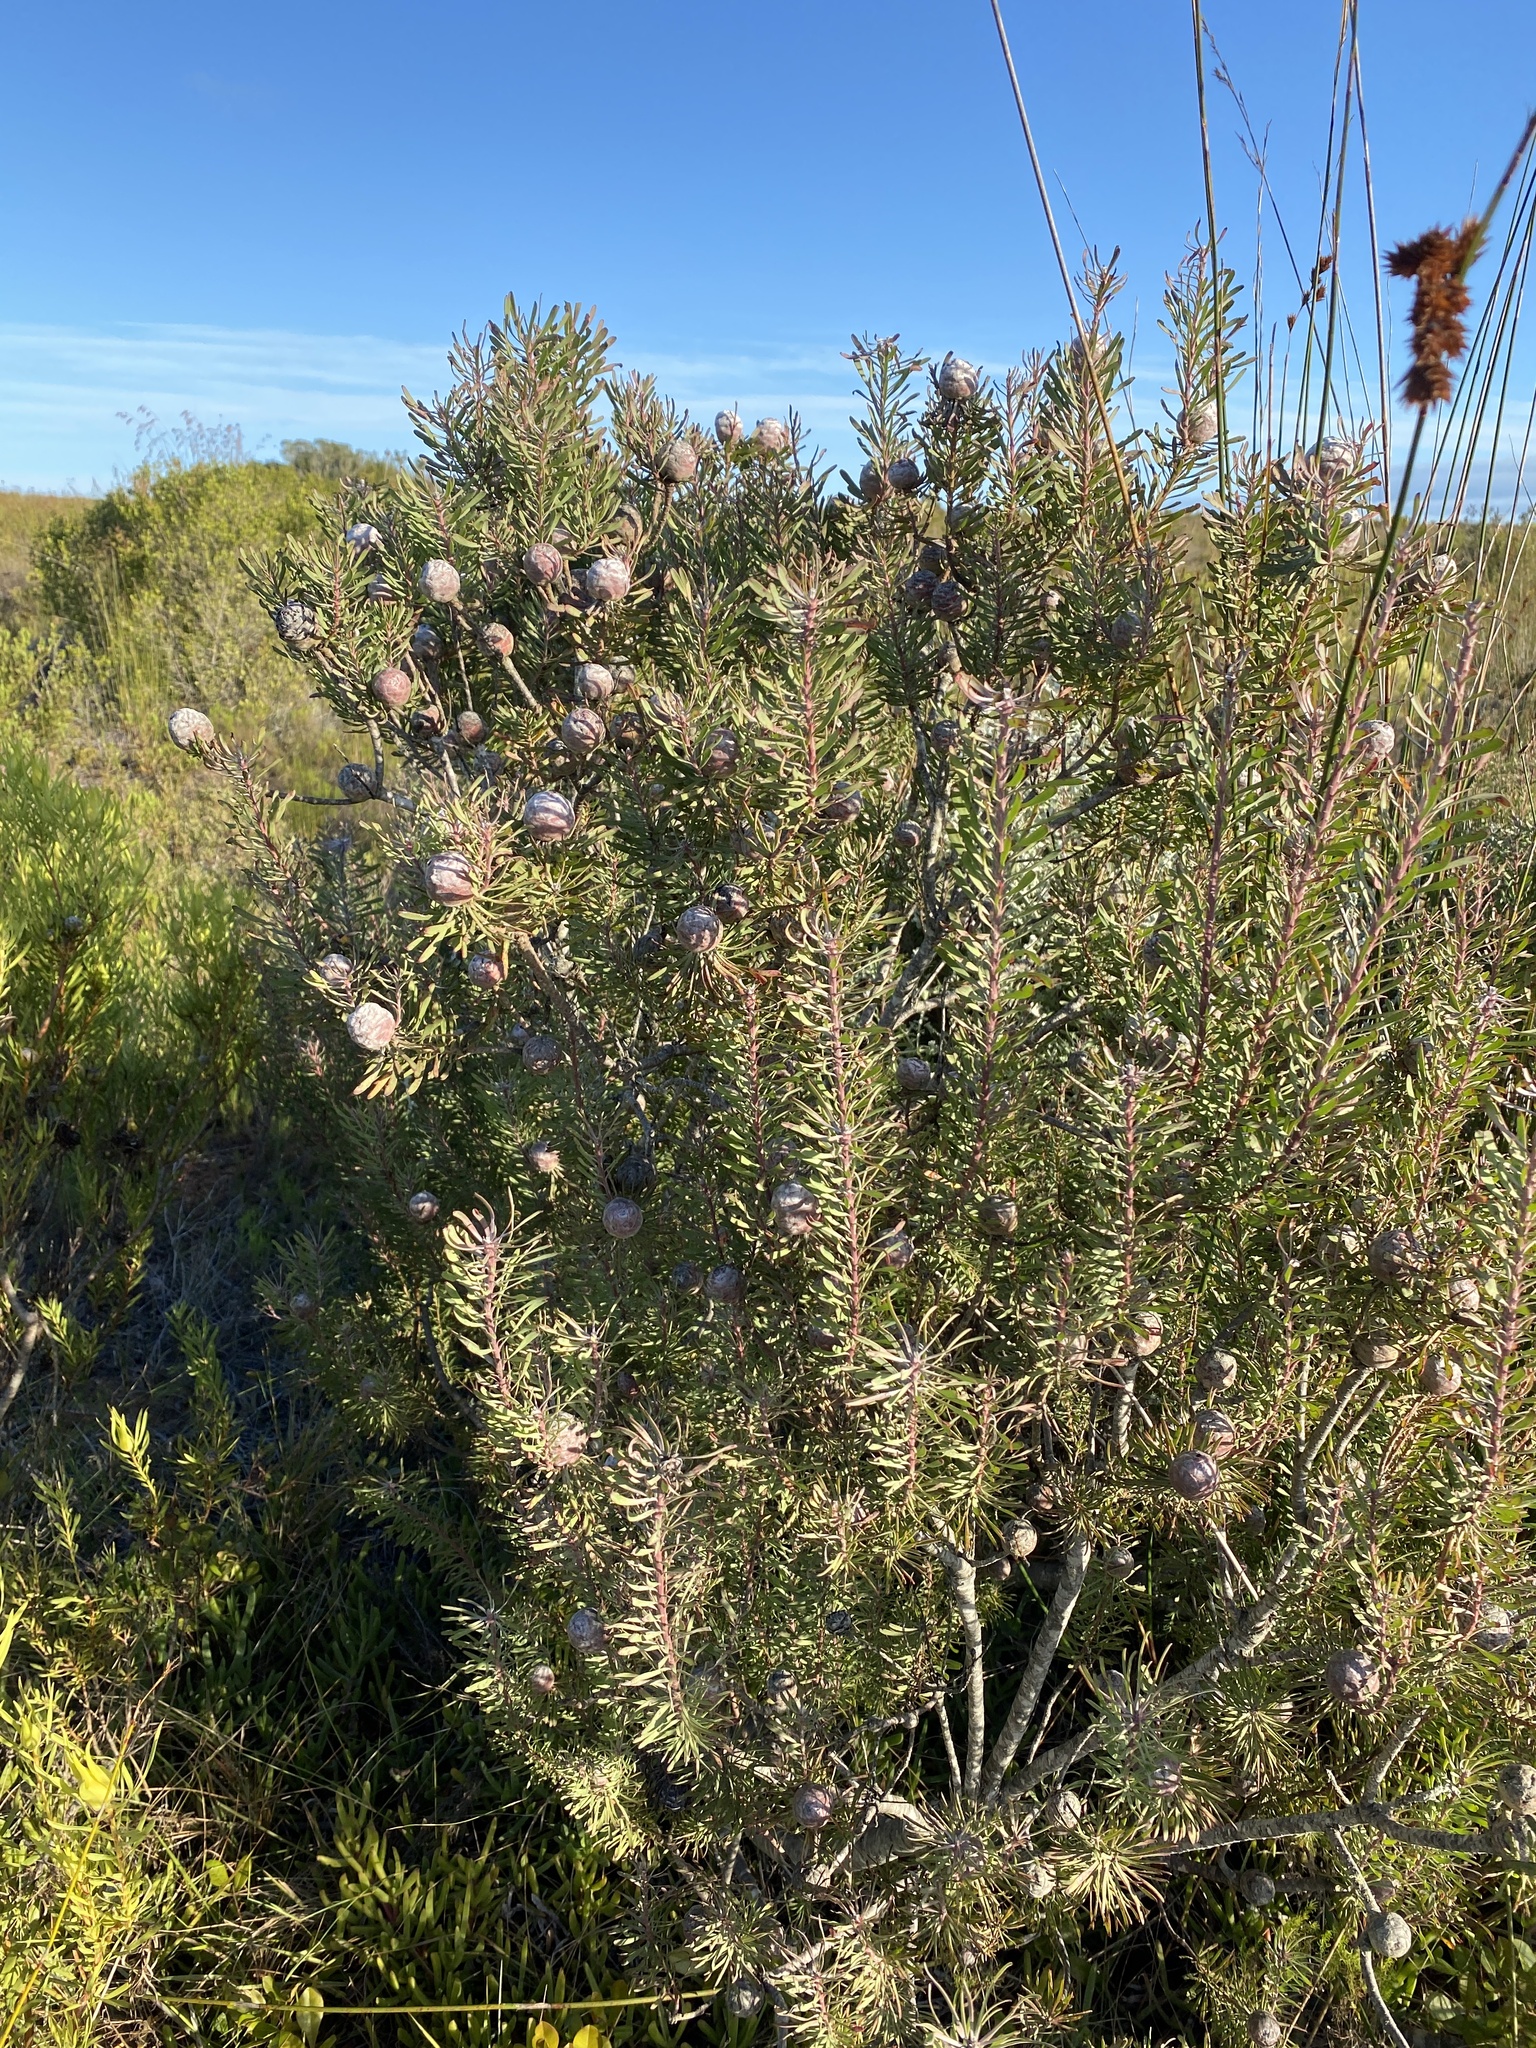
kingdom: Plantae
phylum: Tracheophyta
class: Magnoliopsida
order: Proteales
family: Proteaceae
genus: Leucadendron
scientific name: Leucadendron galpinii
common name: Hairless conebush
